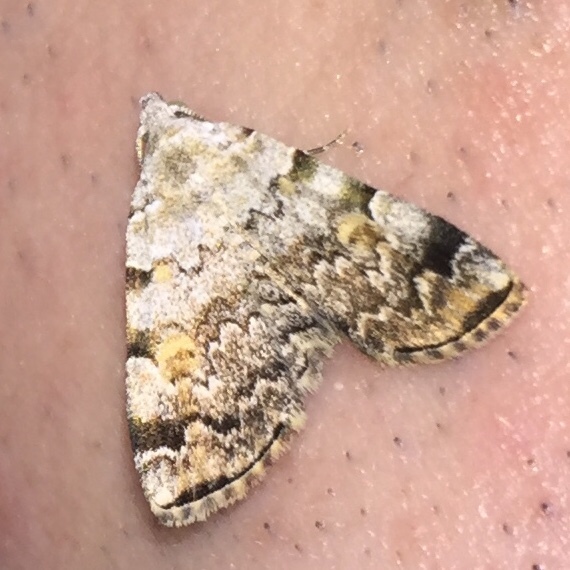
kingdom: Animalia
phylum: Arthropoda
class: Insecta
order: Lepidoptera
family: Erebidae
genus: Idia
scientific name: Idia americalis
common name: American idia moth
